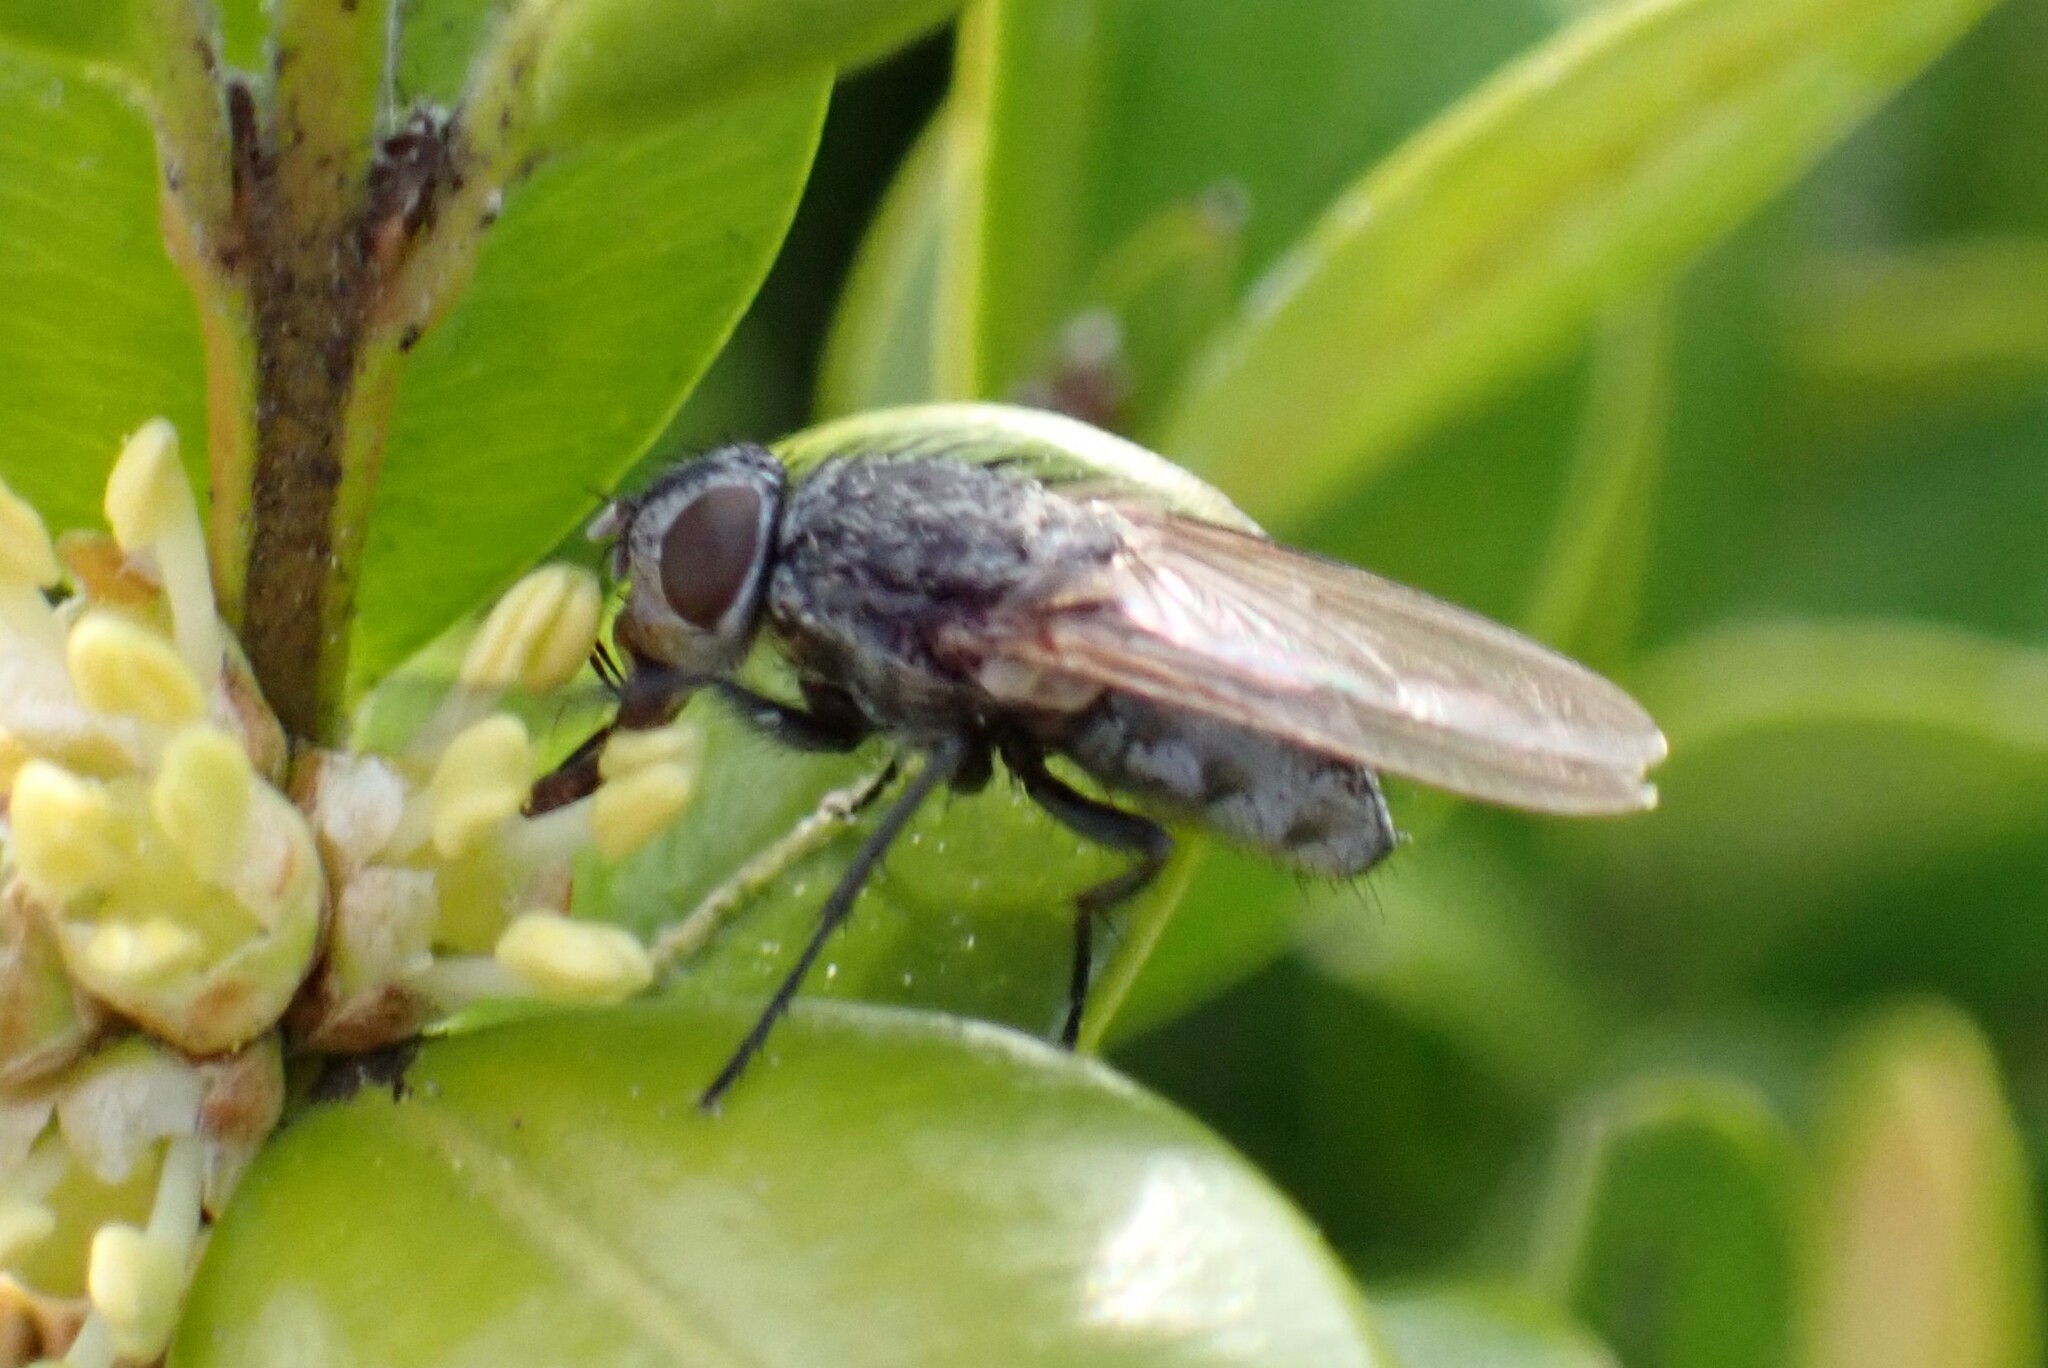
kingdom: Animalia
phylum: Arthropoda
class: Insecta
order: Diptera
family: Polleniidae
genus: Pollenia
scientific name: Pollenia
